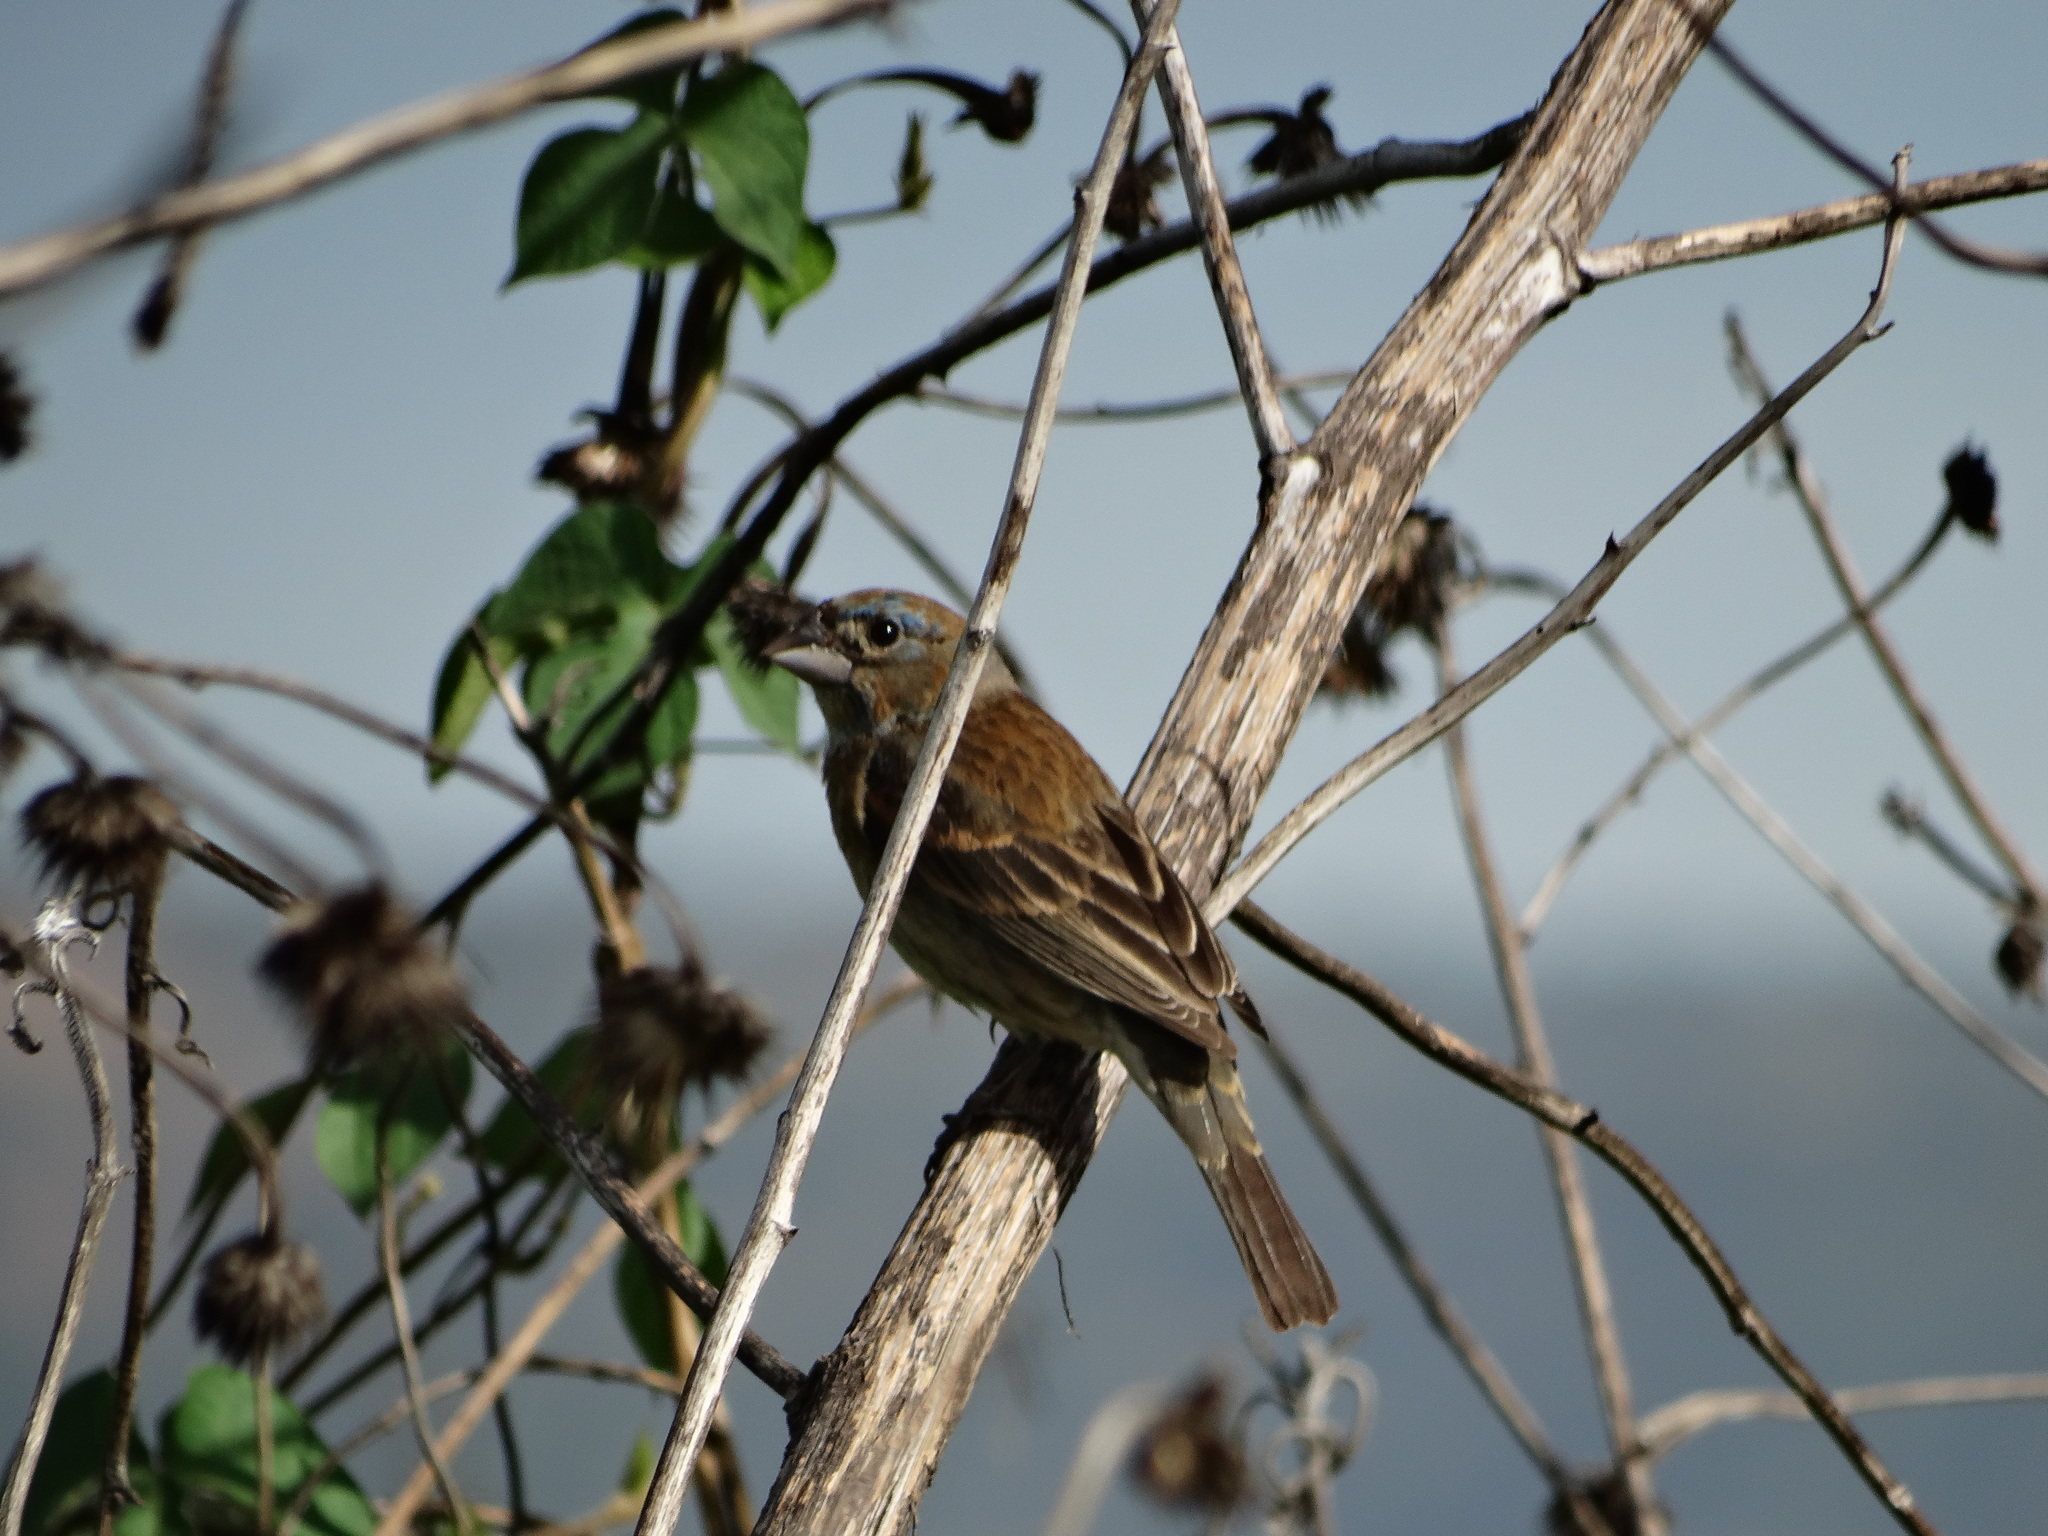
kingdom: Animalia
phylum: Chordata
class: Aves
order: Passeriformes
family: Cardinalidae
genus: Passerina
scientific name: Passerina caerulea
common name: Blue grosbeak
